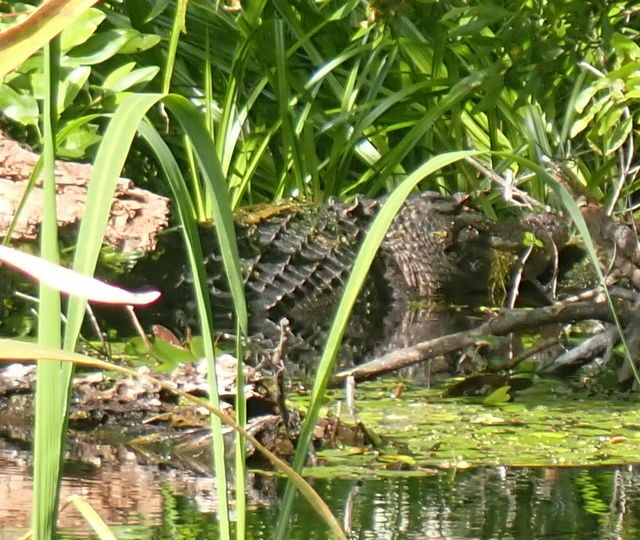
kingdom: Animalia
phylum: Chordata
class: Crocodylia
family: Alligatoridae
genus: Alligator
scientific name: Alligator mississippiensis
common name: American alligator
